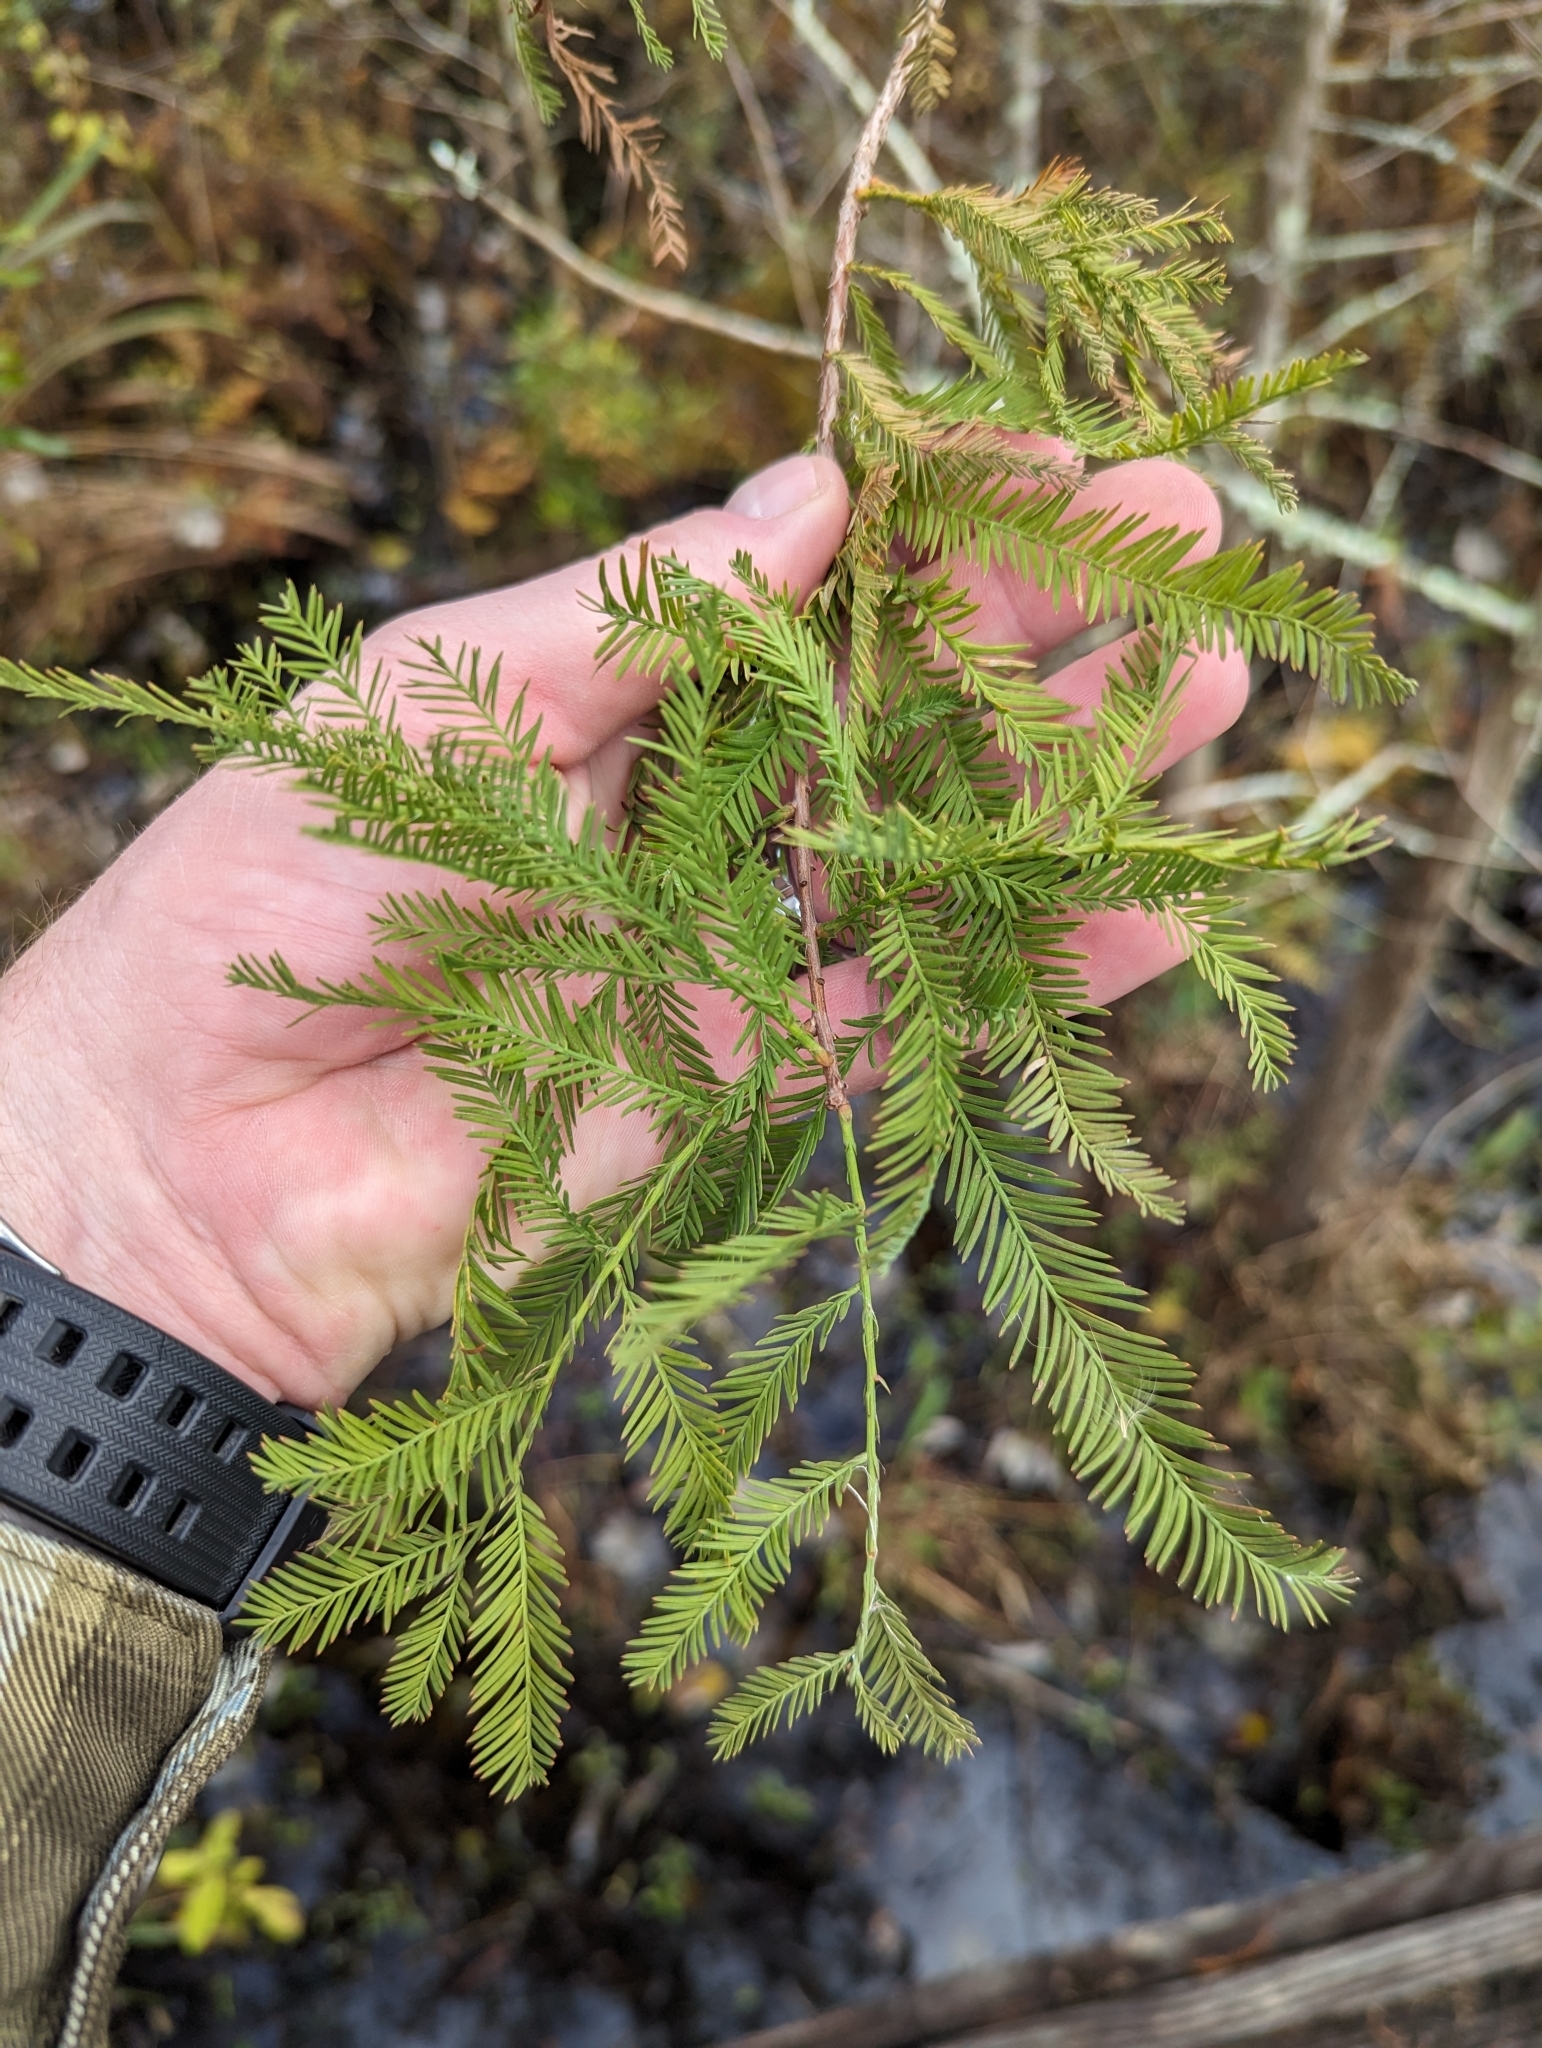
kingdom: Plantae
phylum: Tracheophyta
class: Pinopsida
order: Pinales
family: Cupressaceae
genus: Taxodium
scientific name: Taxodium distichum
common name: Bald cypress
